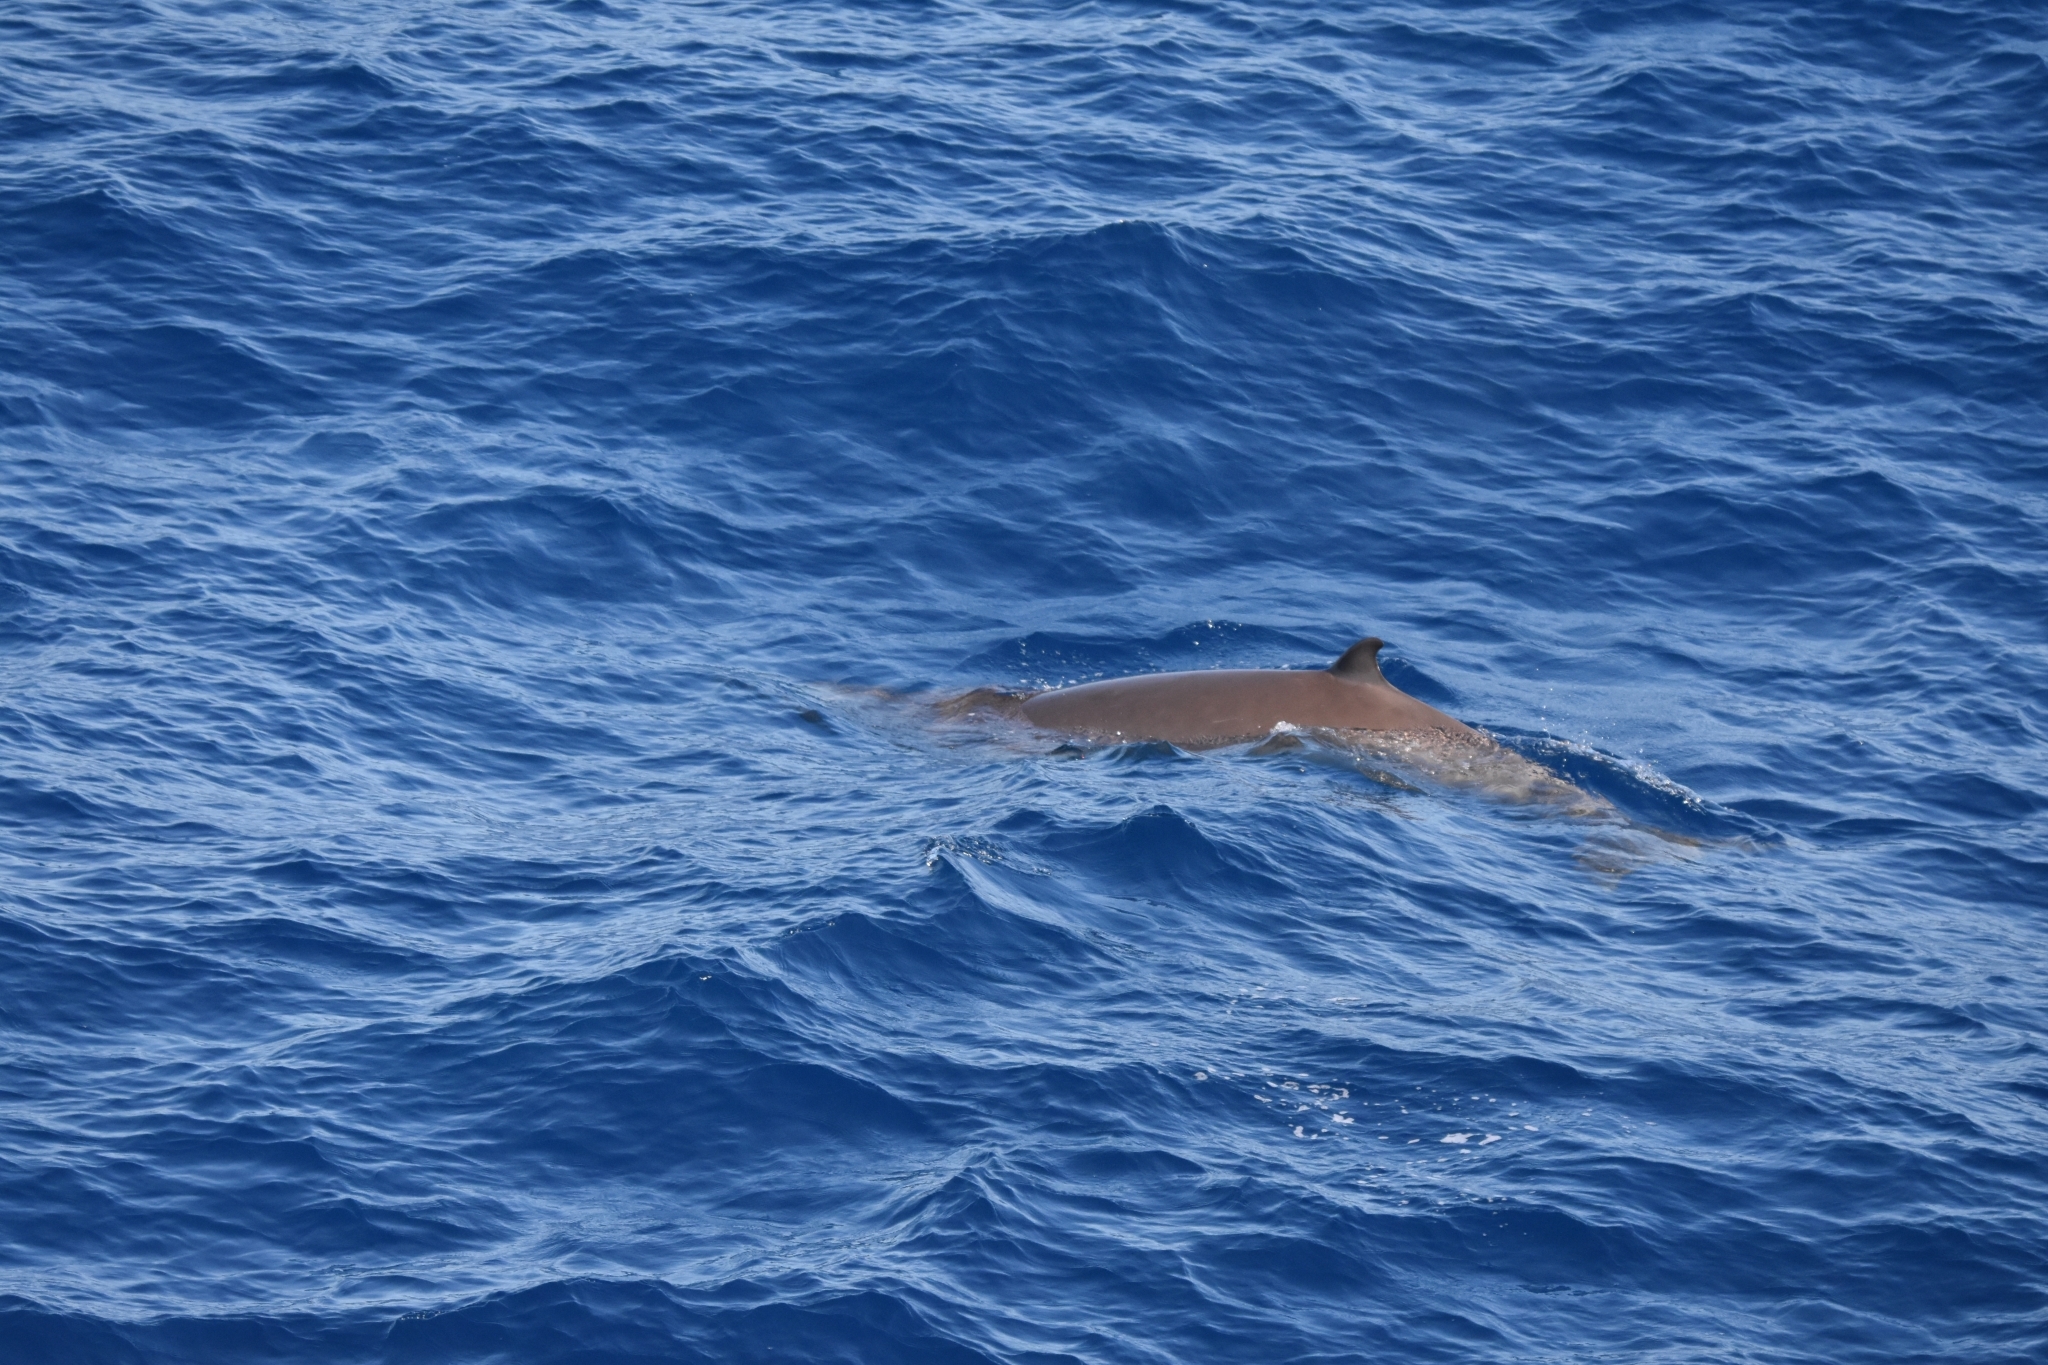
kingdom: Animalia
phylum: Chordata
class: Mammalia
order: Cetacea
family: Hyperoodontidae
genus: Ziphius
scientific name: Ziphius cavirostris
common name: Cuvier's beaked whale
